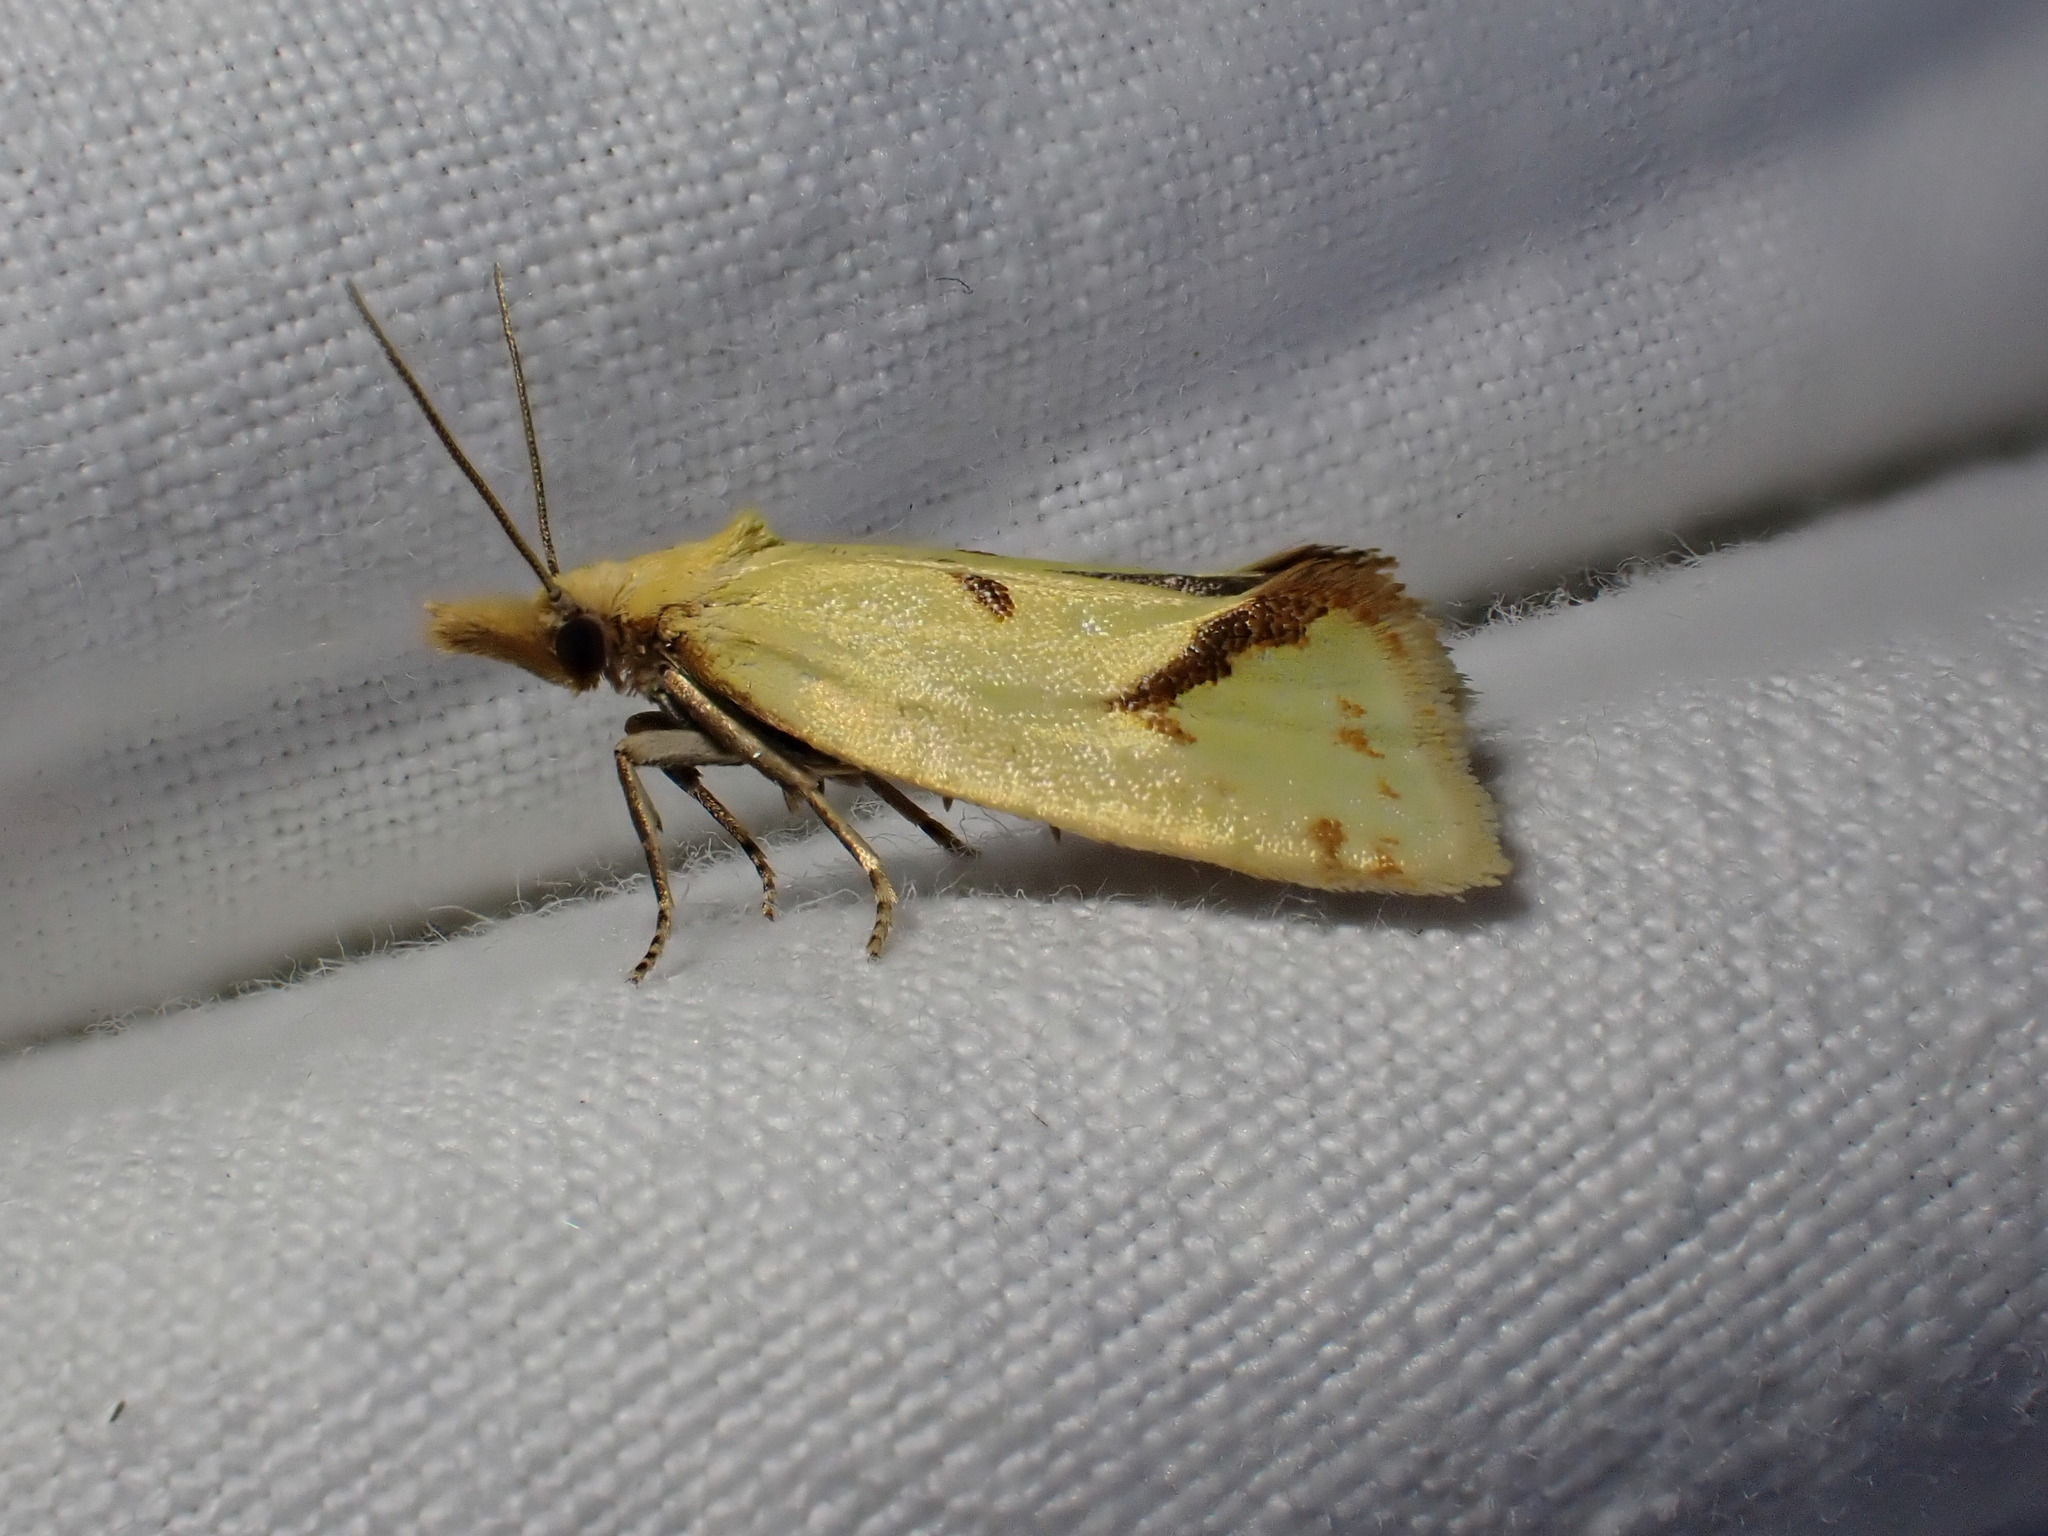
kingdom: Animalia
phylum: Arthropoda
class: Insecta
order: Lepidoptera
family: Tortricidae
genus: Agapeta
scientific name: Agapeta hamana
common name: Common yellow conch
